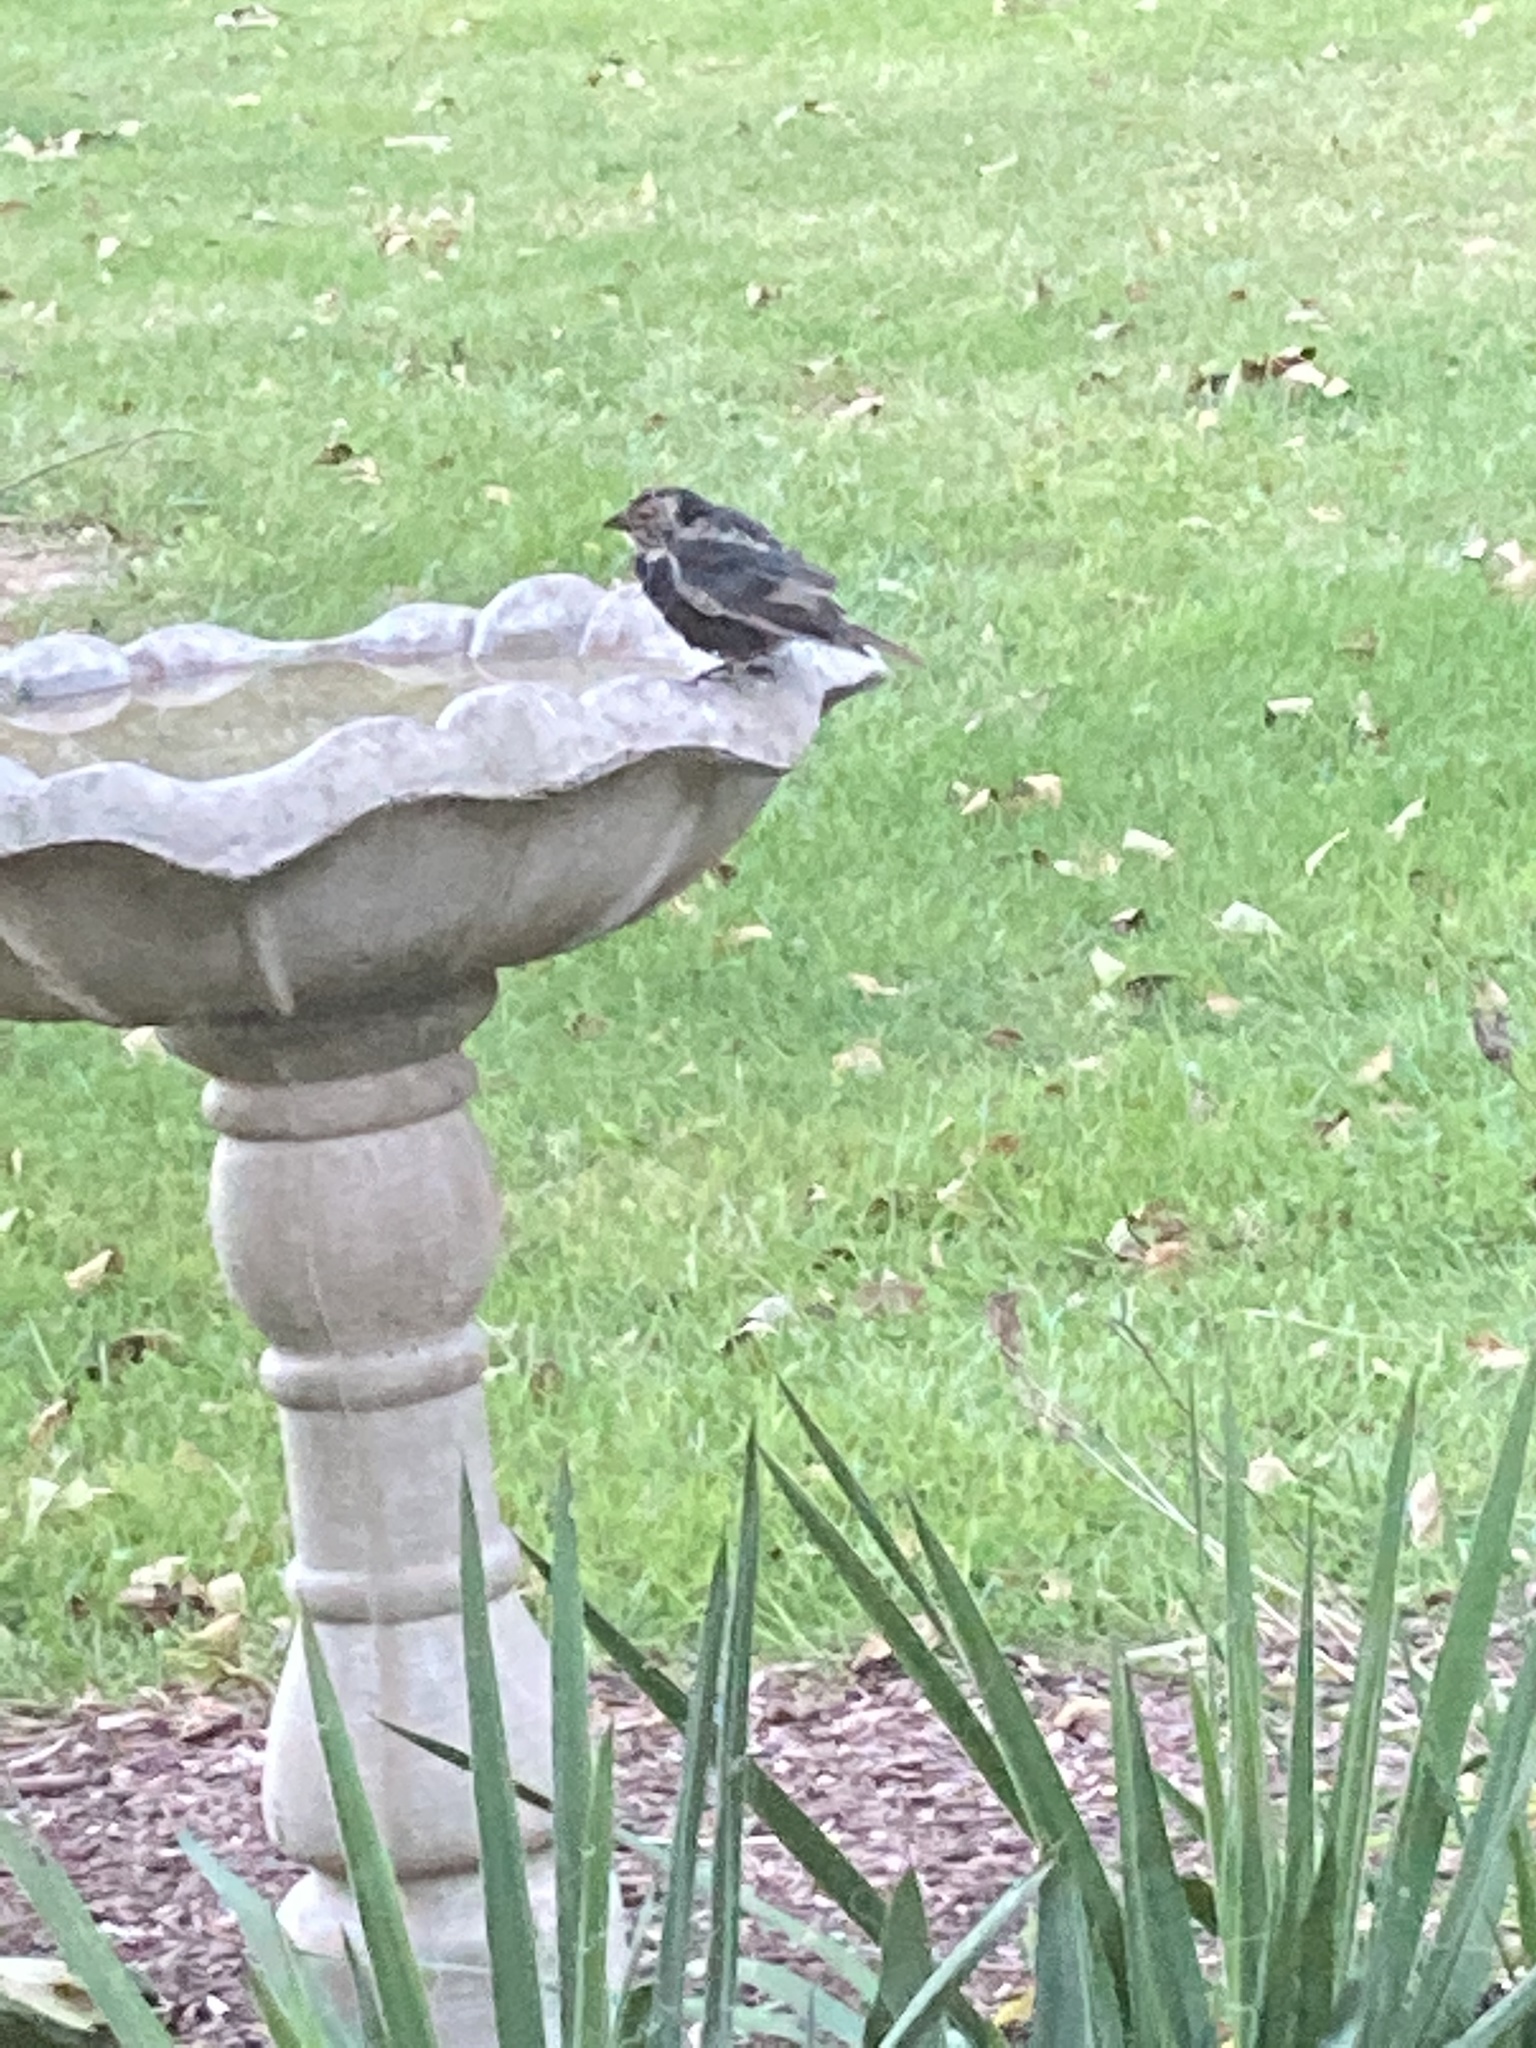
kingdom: Animalia
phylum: Chordata
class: Aves
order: Passeriformes
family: Icteridae
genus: Molothrus
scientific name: Molothrus ater
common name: Brown-headed cowbird
